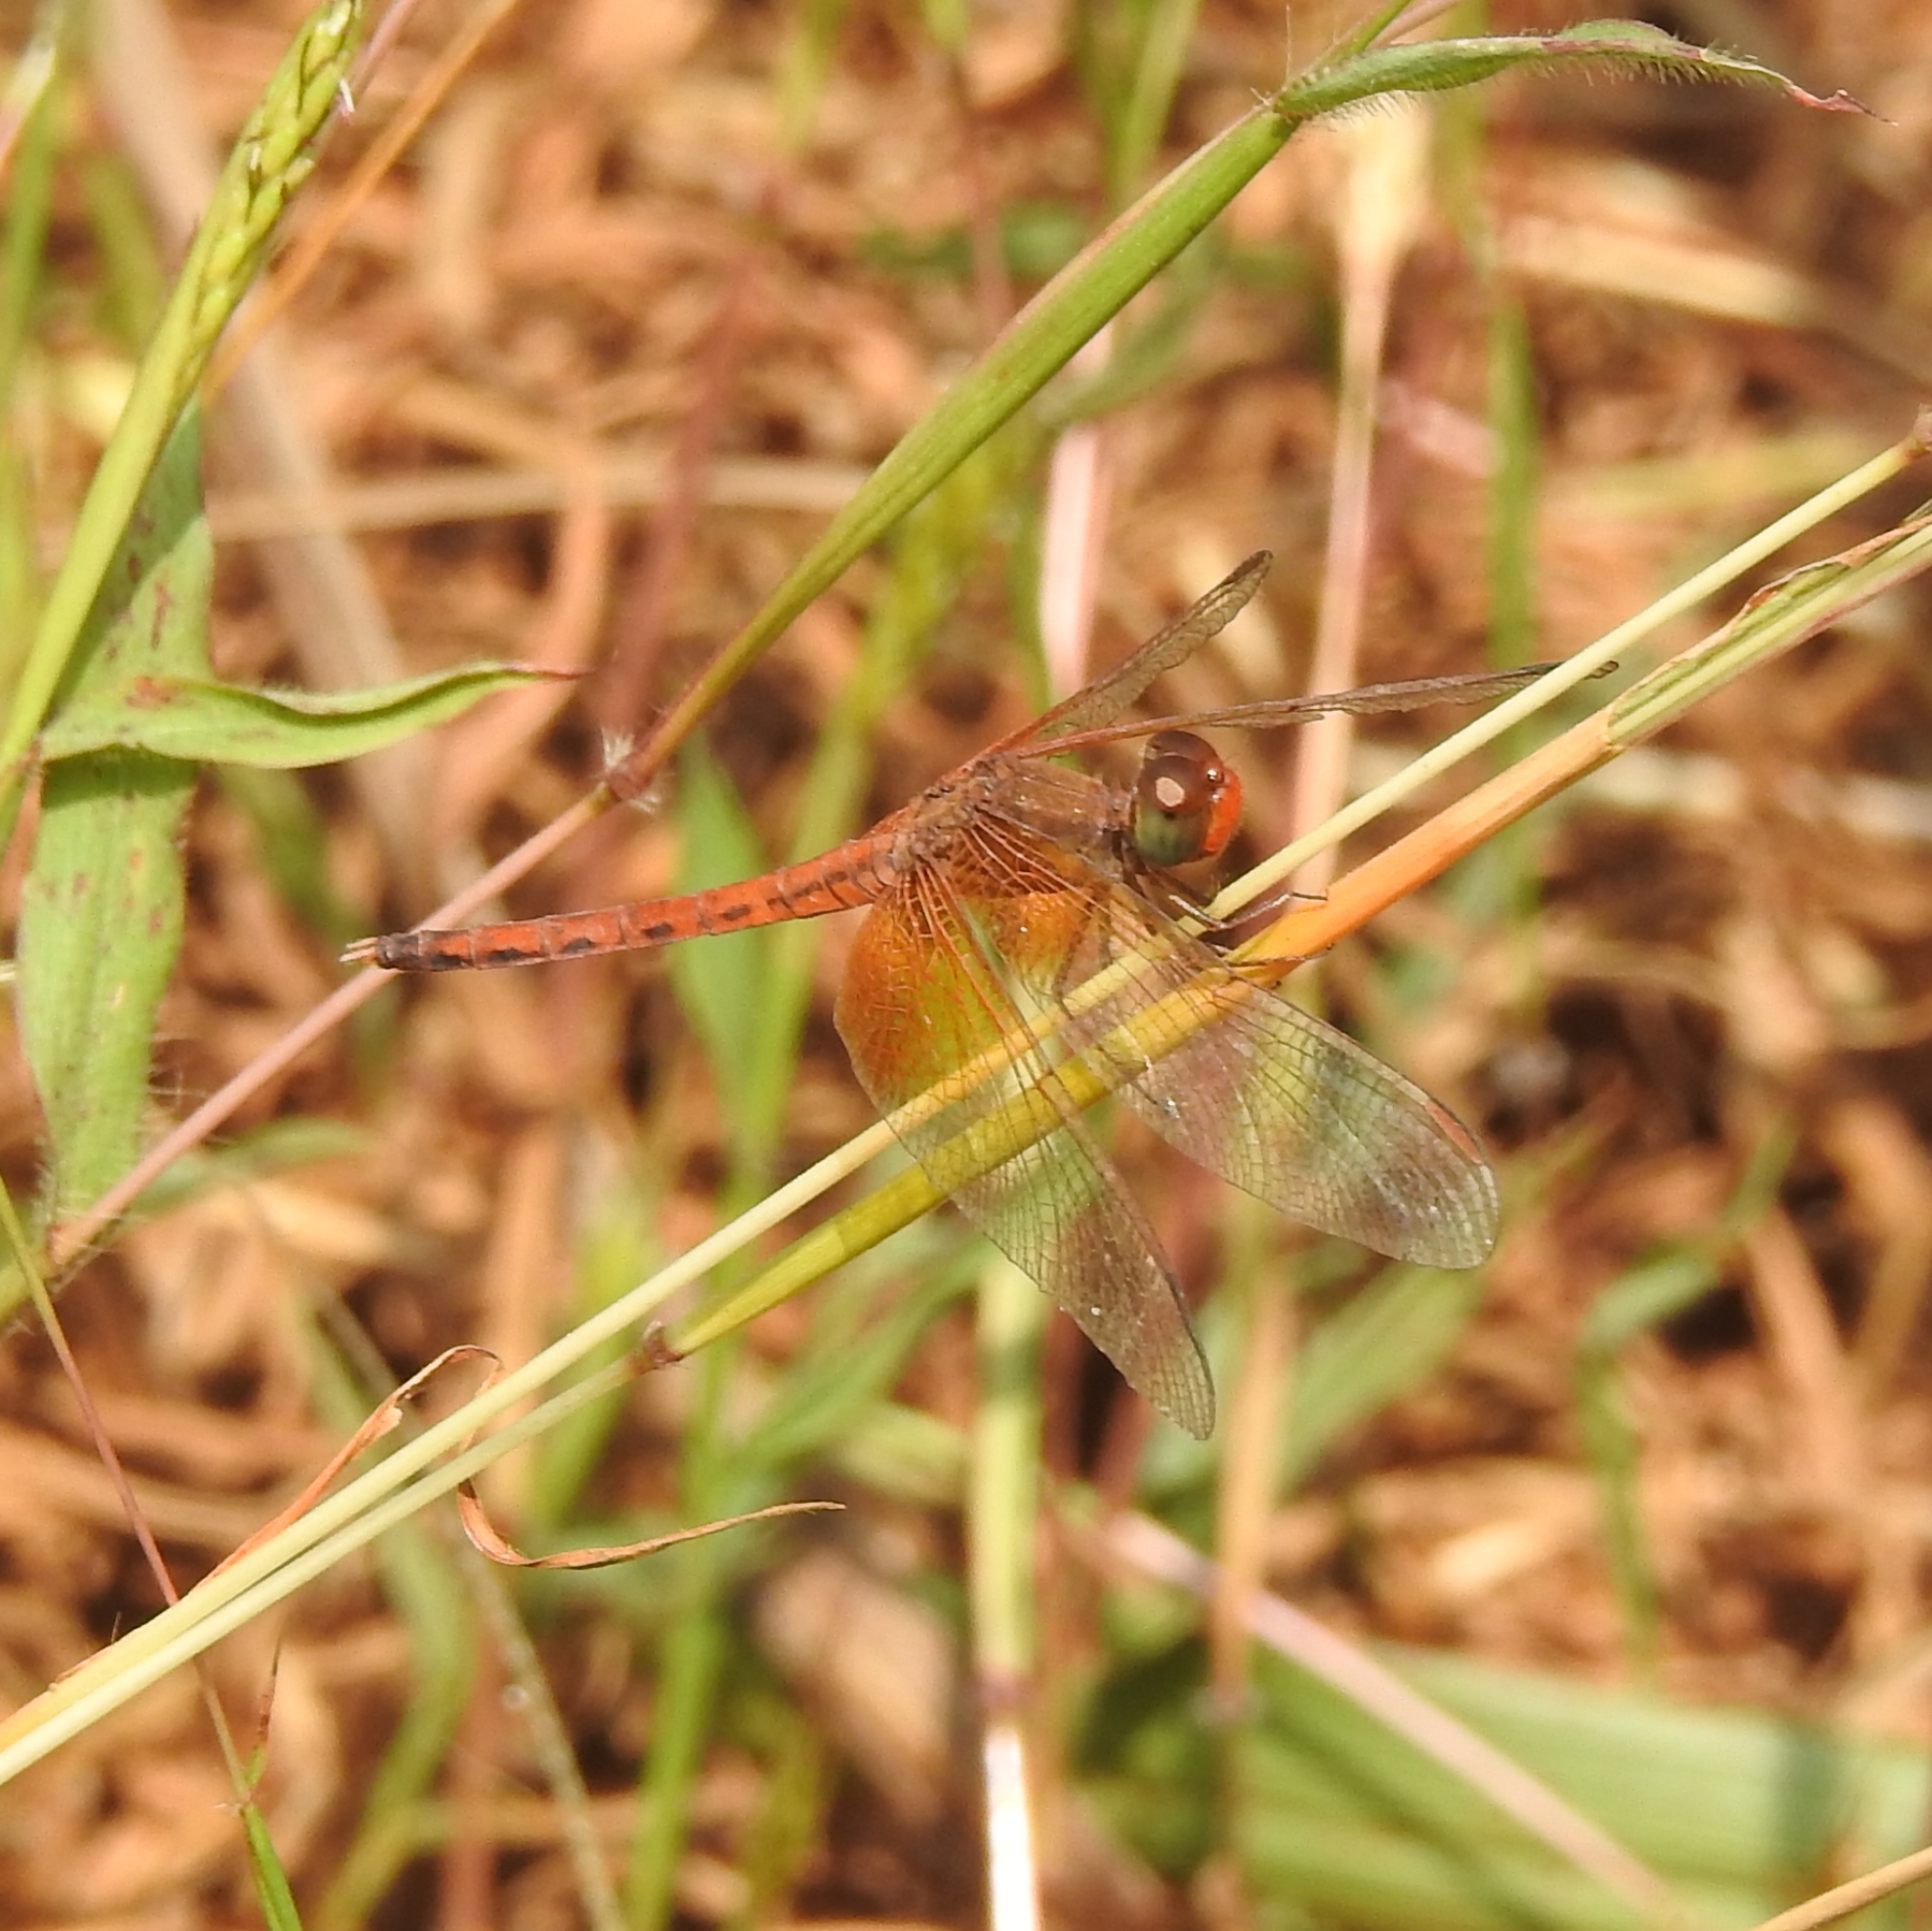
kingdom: Animalia
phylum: Arthropoda
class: Insecta
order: Odonata
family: Libellulidae
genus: Neurothemis
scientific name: Neurothemis intermedia
